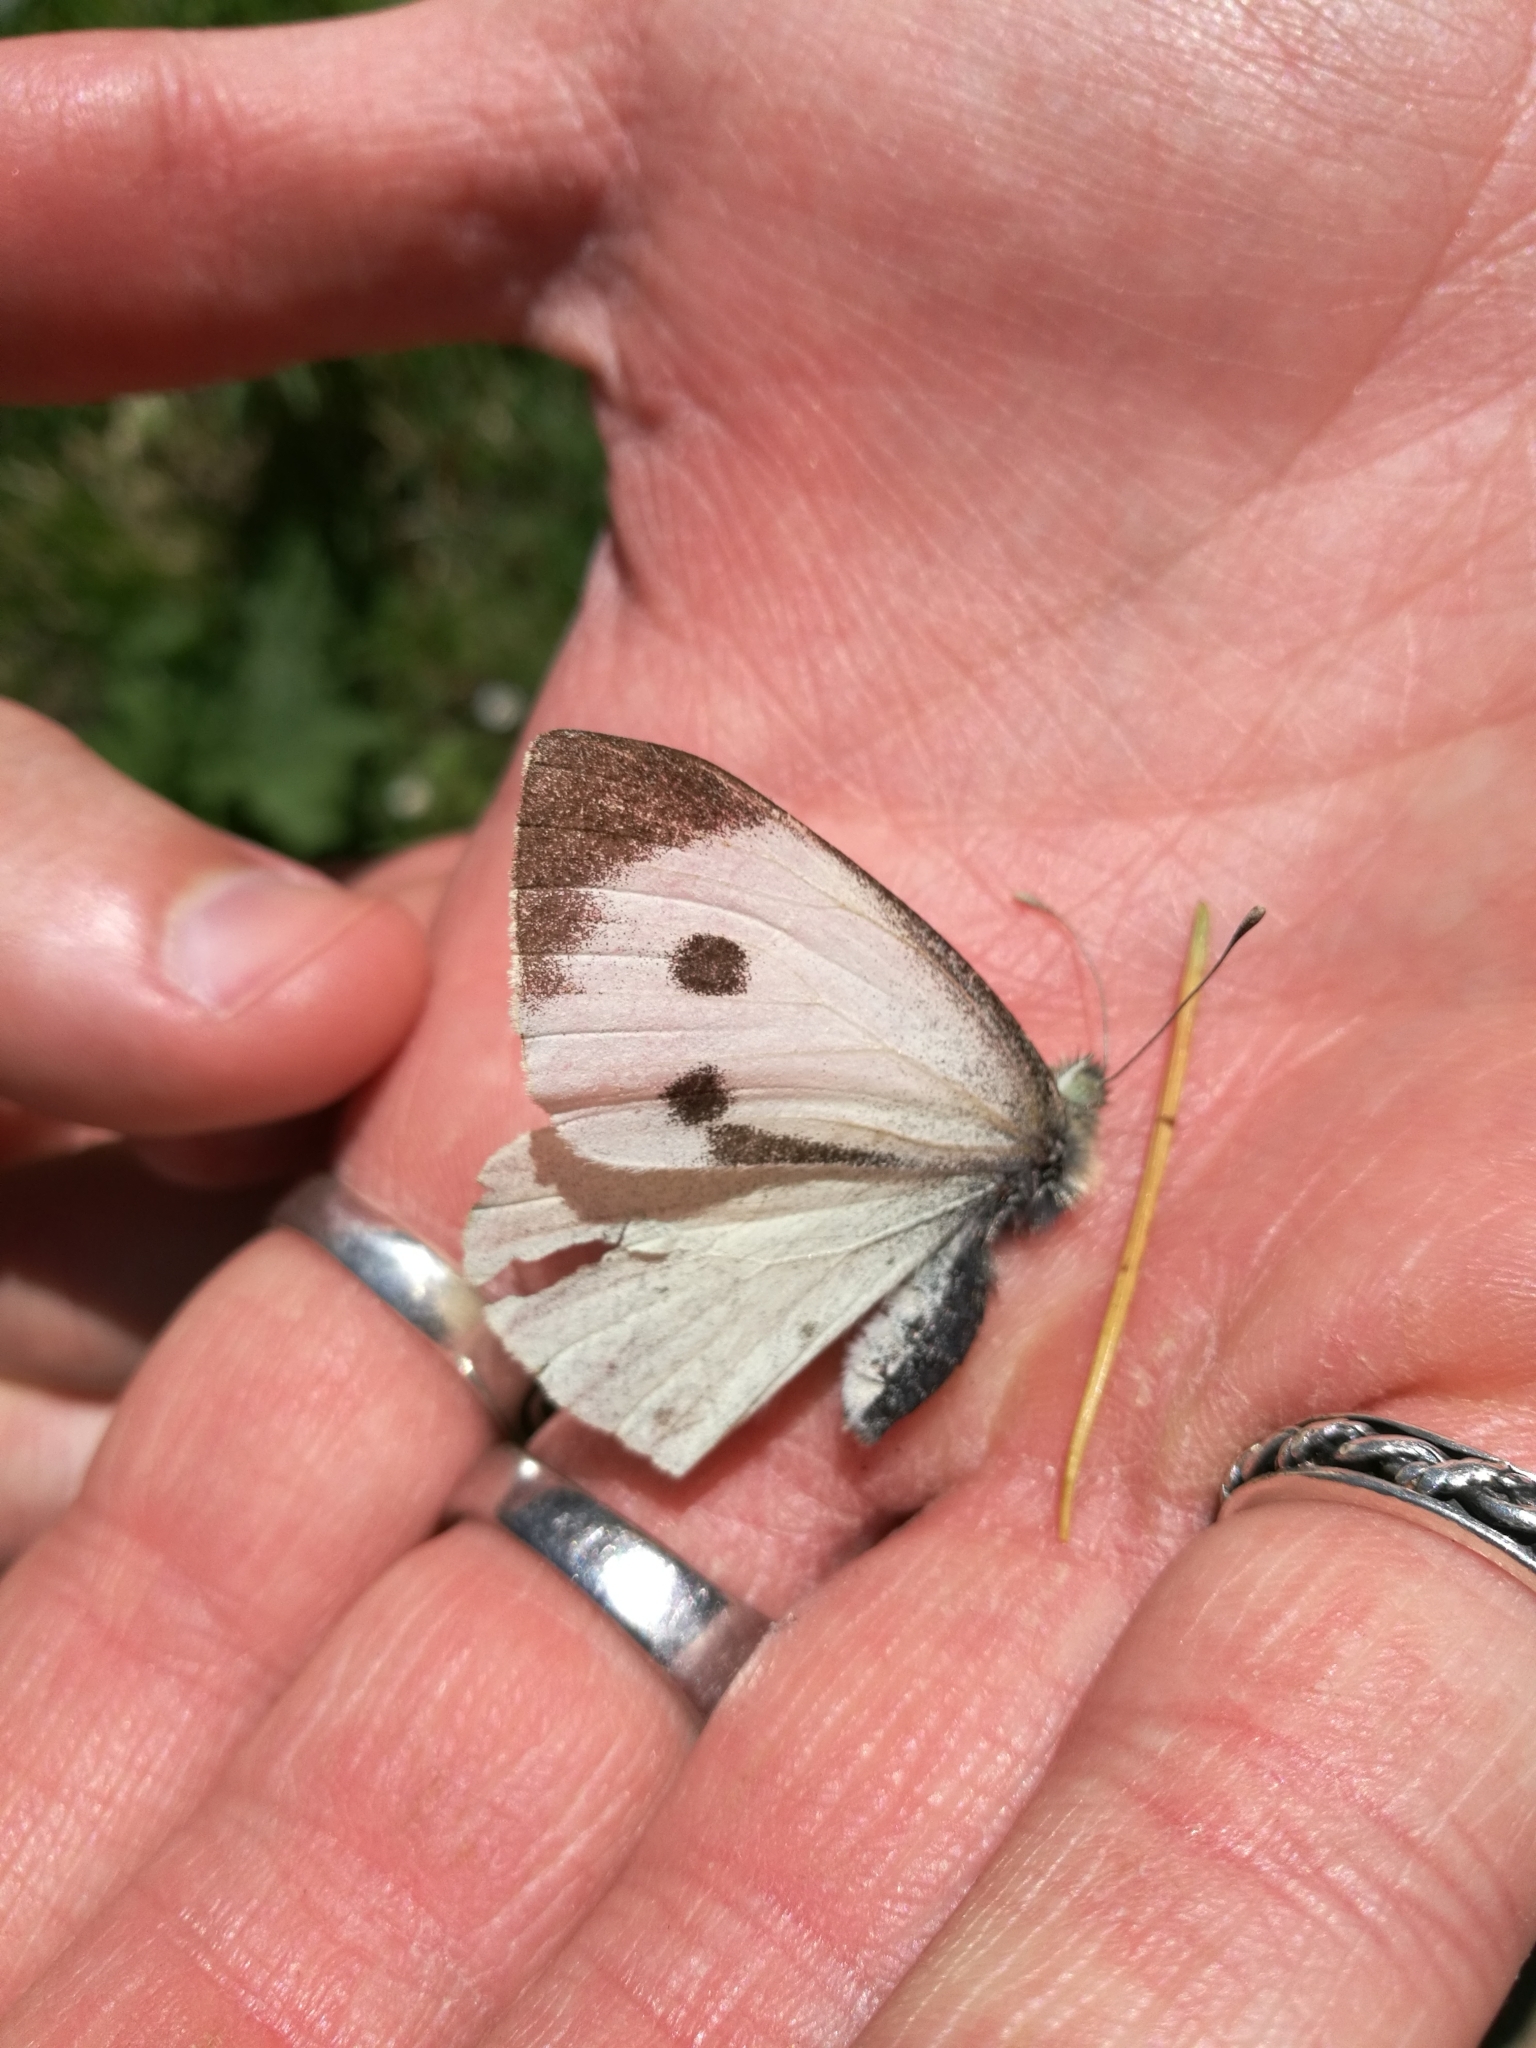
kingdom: Animalia
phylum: Arthropoda
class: Insecta
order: Lepidoptera
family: Pieridae
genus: Pieris
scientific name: Pieris brassicae
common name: Large white
